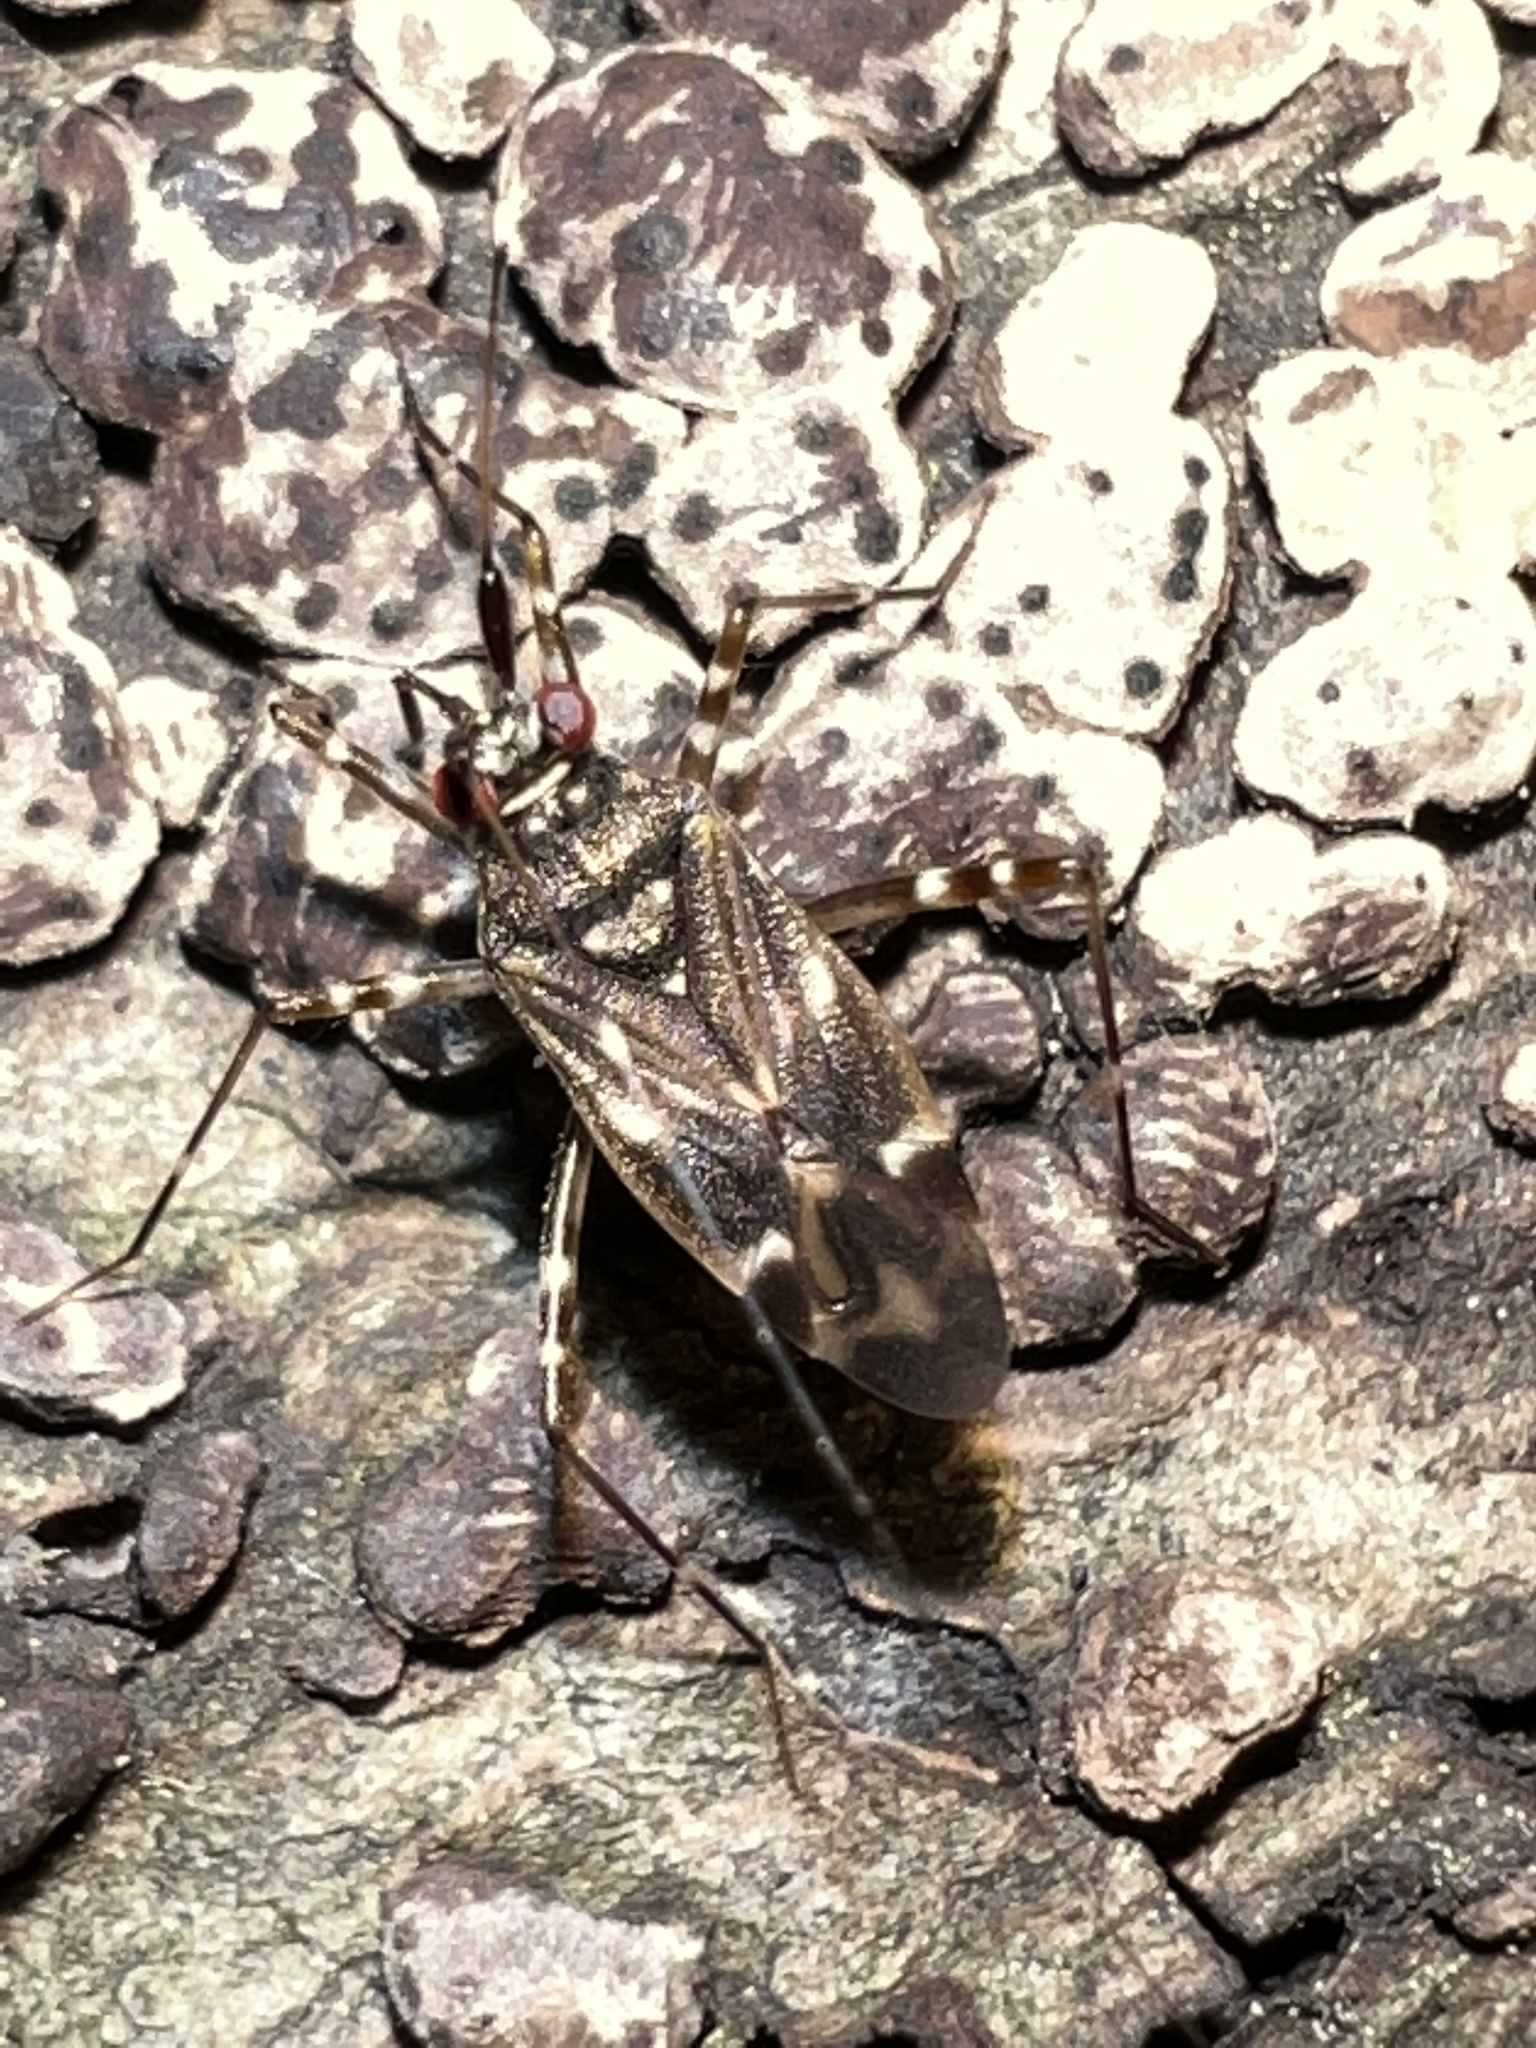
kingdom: Animalia
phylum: Arthropoda
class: Insecta
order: Hemiptera
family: Miridae
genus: Cylapus
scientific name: Cylapus tenuicornis
